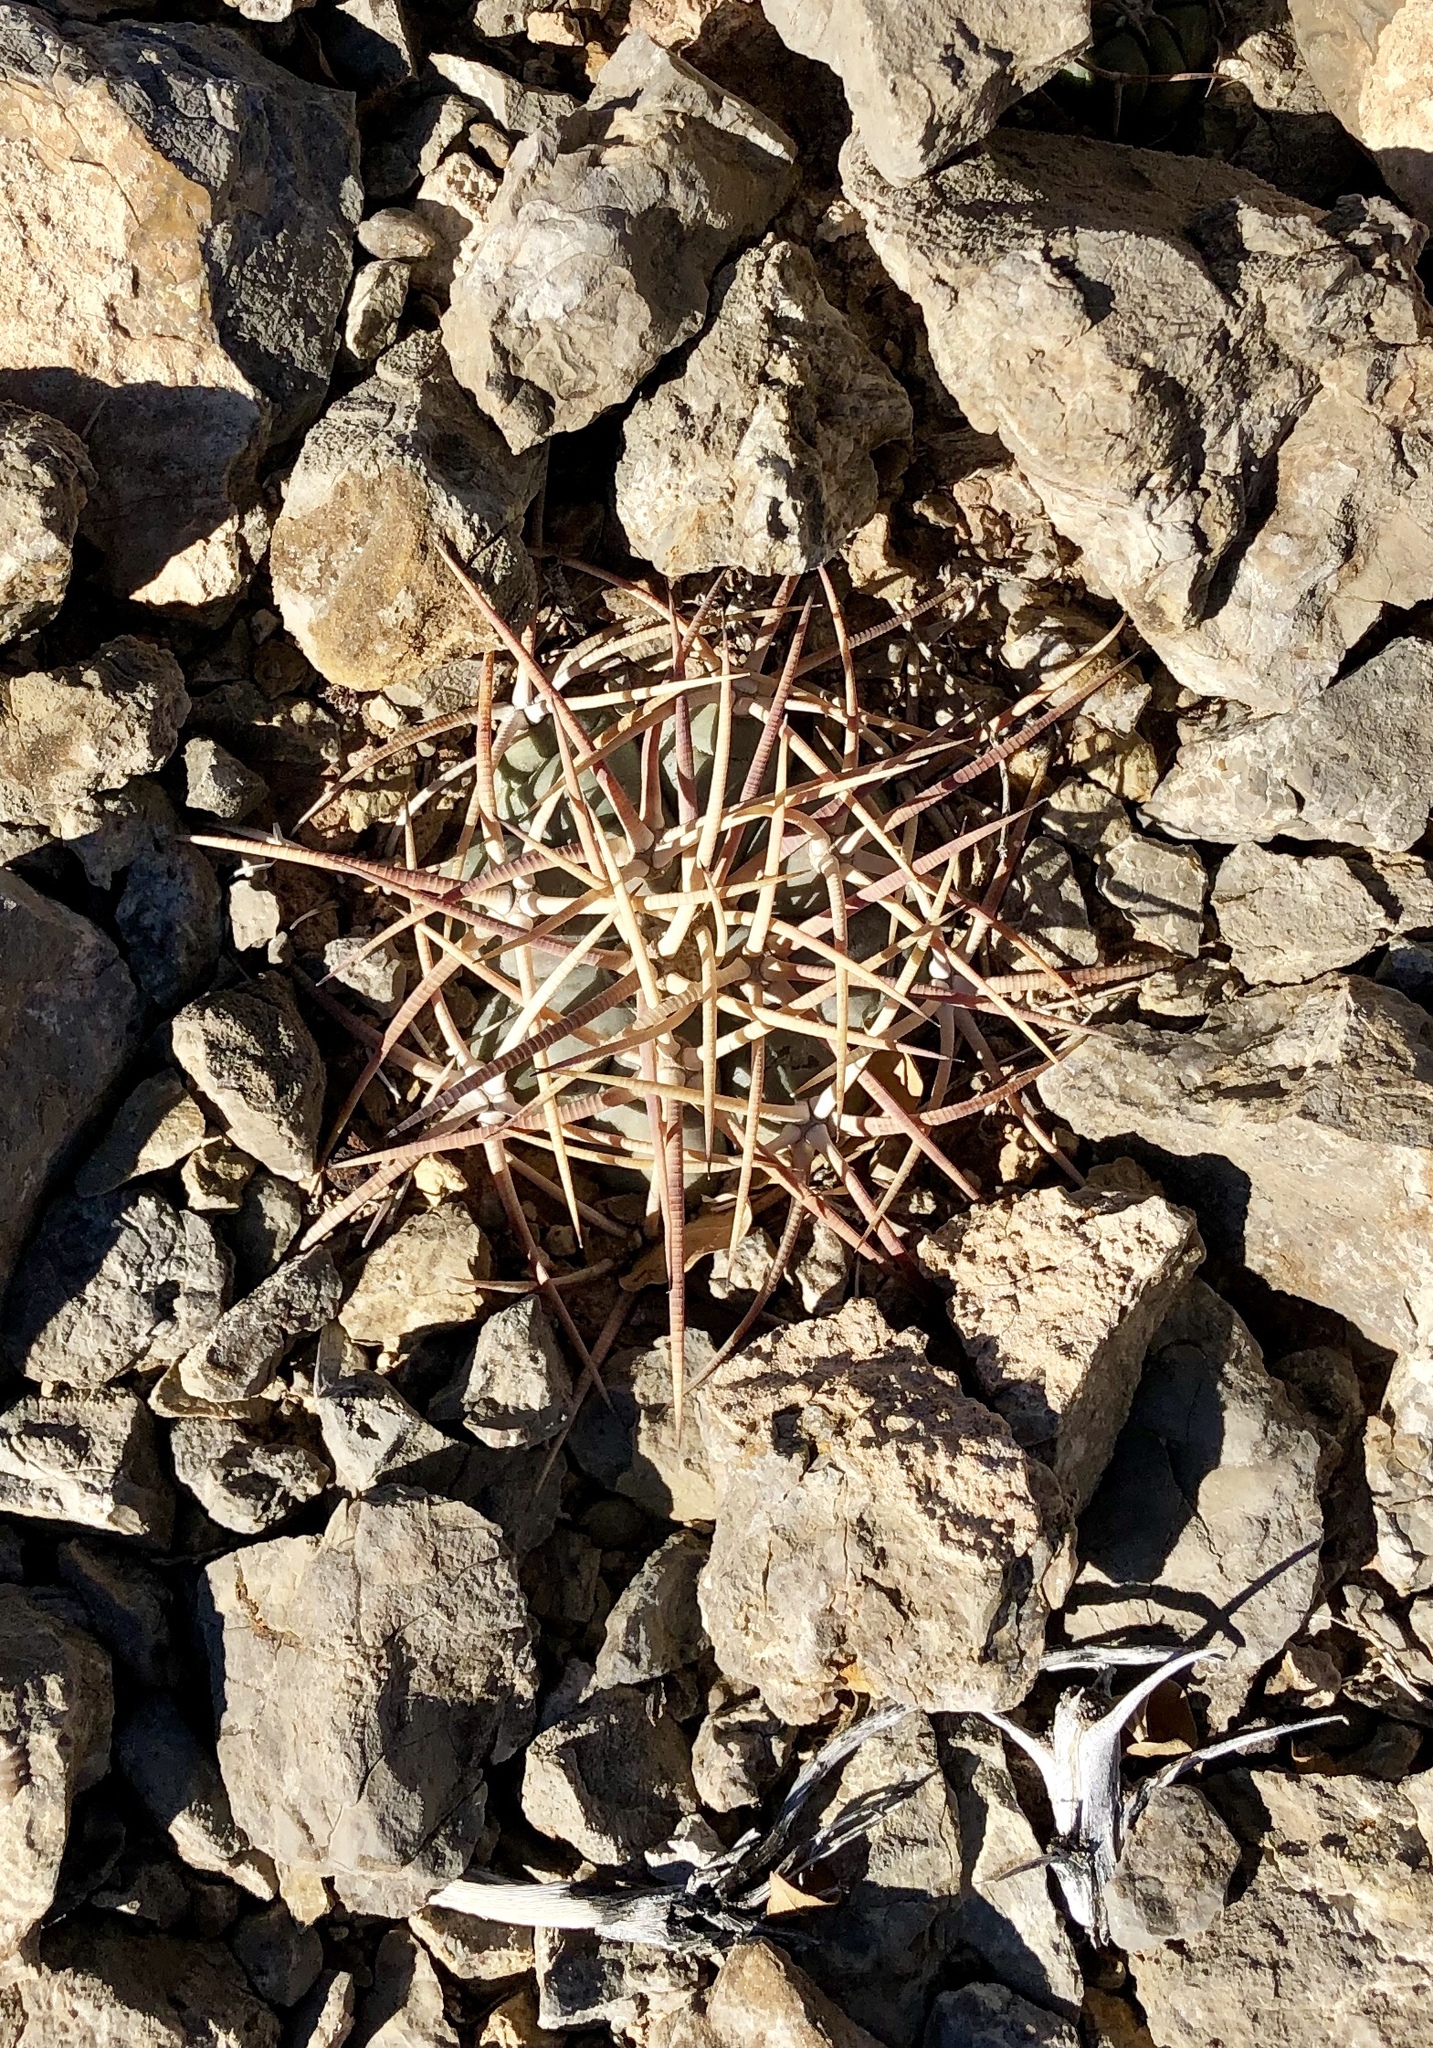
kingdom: Plantae
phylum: Tracheophyta
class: Magnoliopsida
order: Caryophyllales
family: Cactaceae
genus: Echinocactus
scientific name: Echinocactus horizonthalonius
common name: Devilshead
